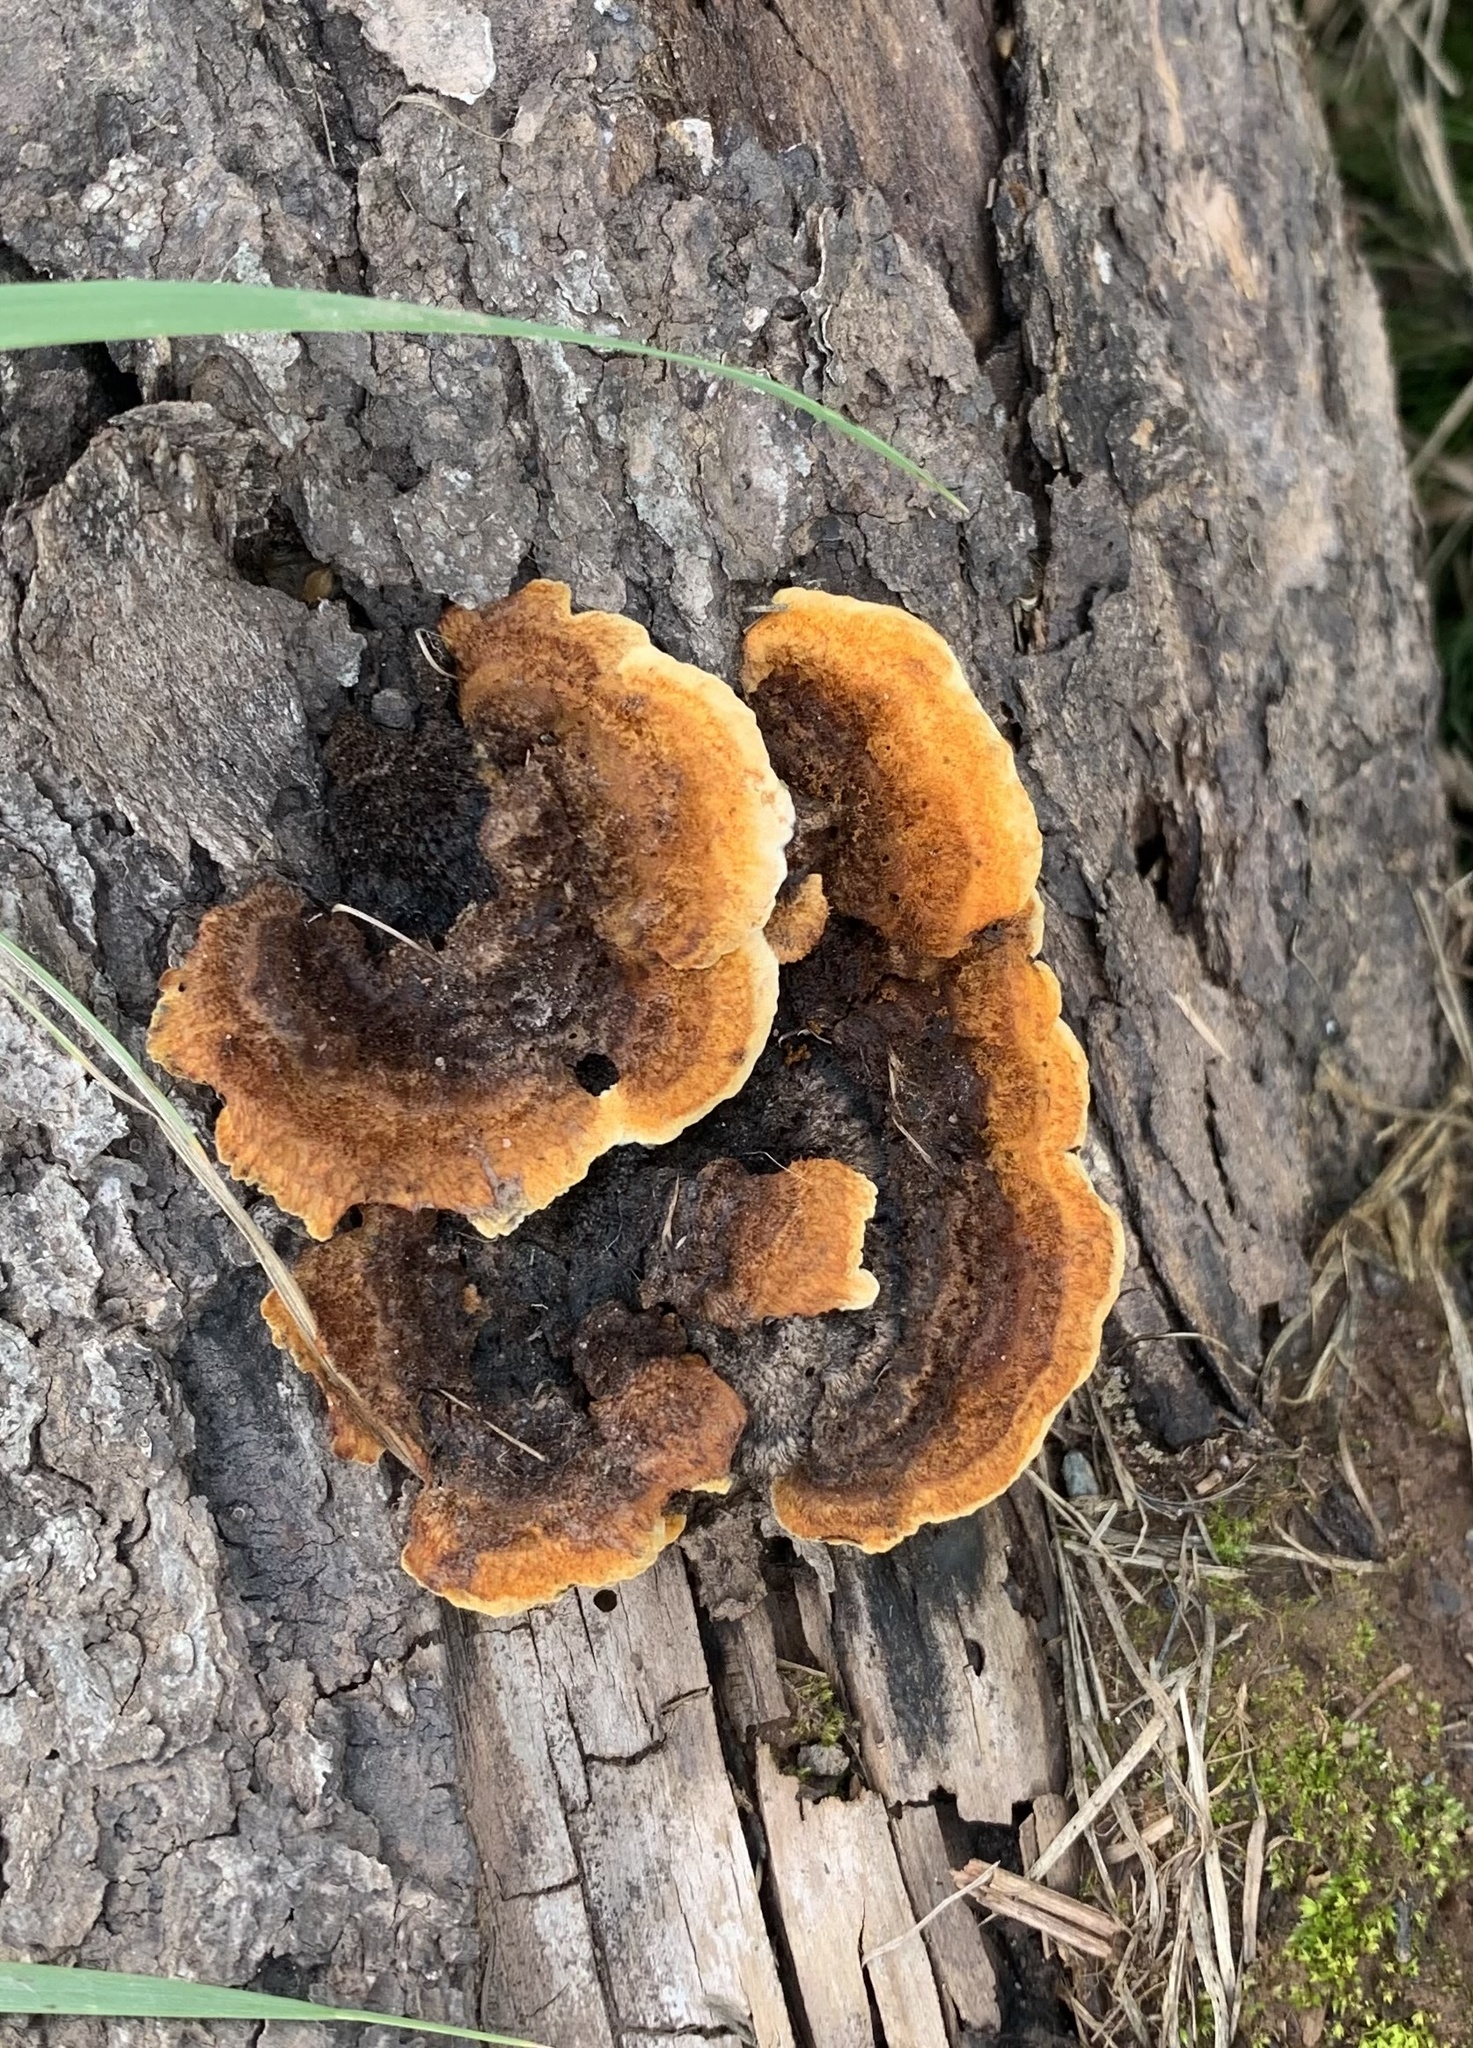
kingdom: Fungi
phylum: Basidiomycota
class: Agaricomycetes
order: Gloeophyllales
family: Gloeophyllaceae
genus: Gloeophyllum
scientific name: Gloeophyllum sepiarium
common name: Conifer mazegill
